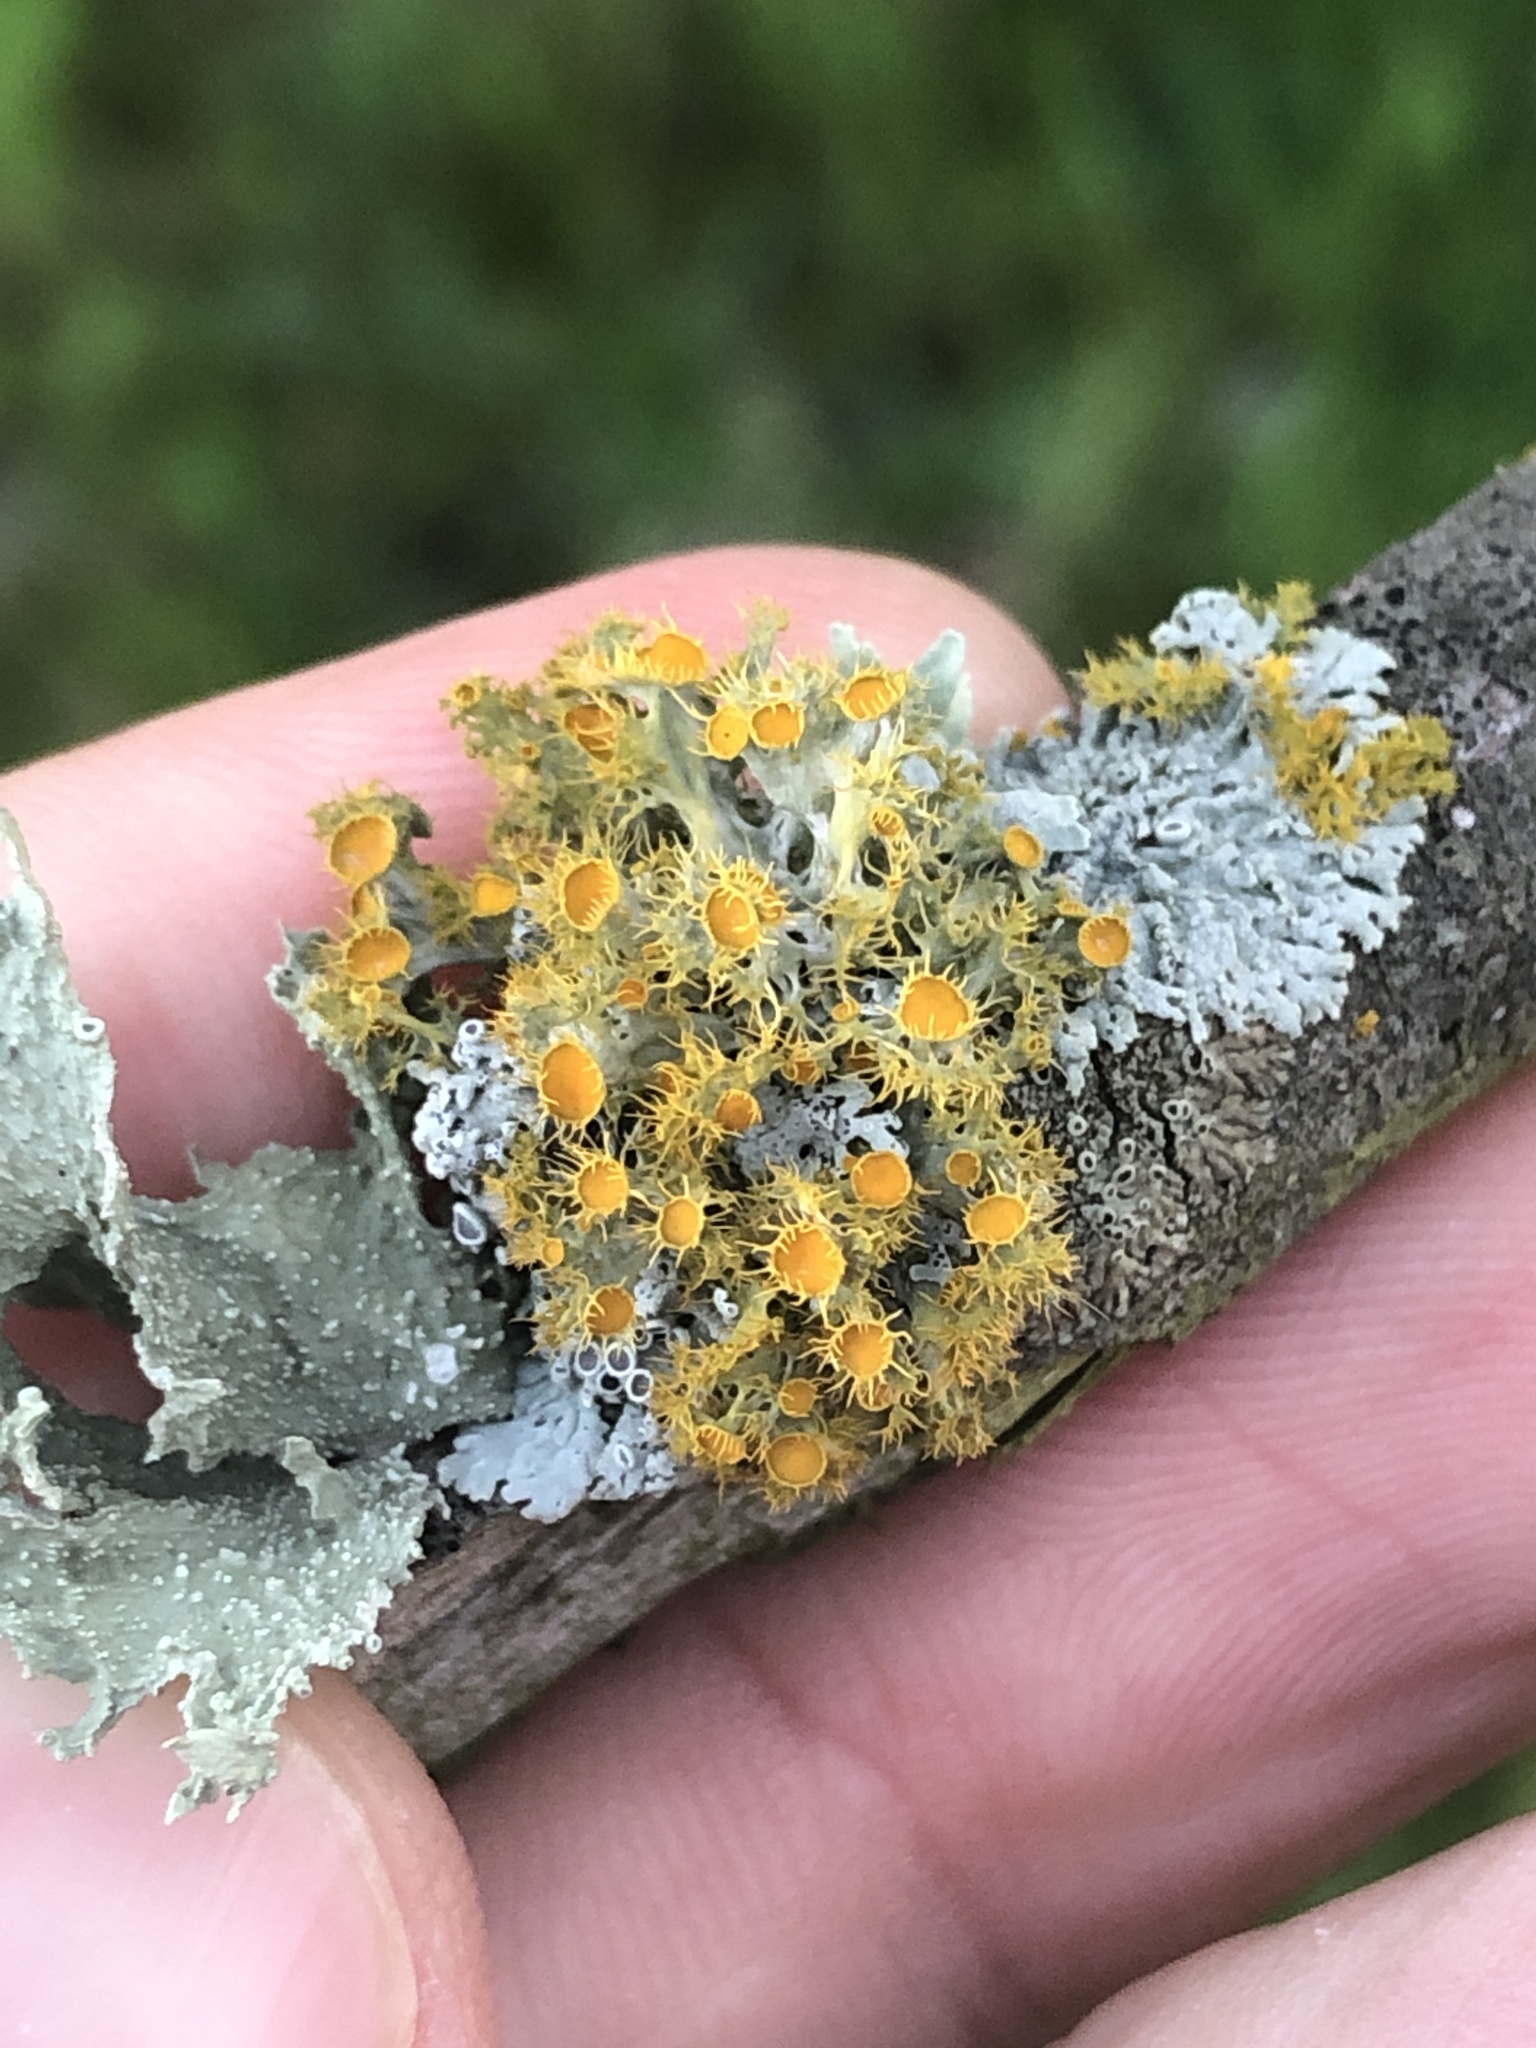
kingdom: Fungi
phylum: Ascomycota
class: Lecanoromycetes
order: Teloschistales
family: Teloschistaceae
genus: Niorma
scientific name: Niorma chrysophthalma
